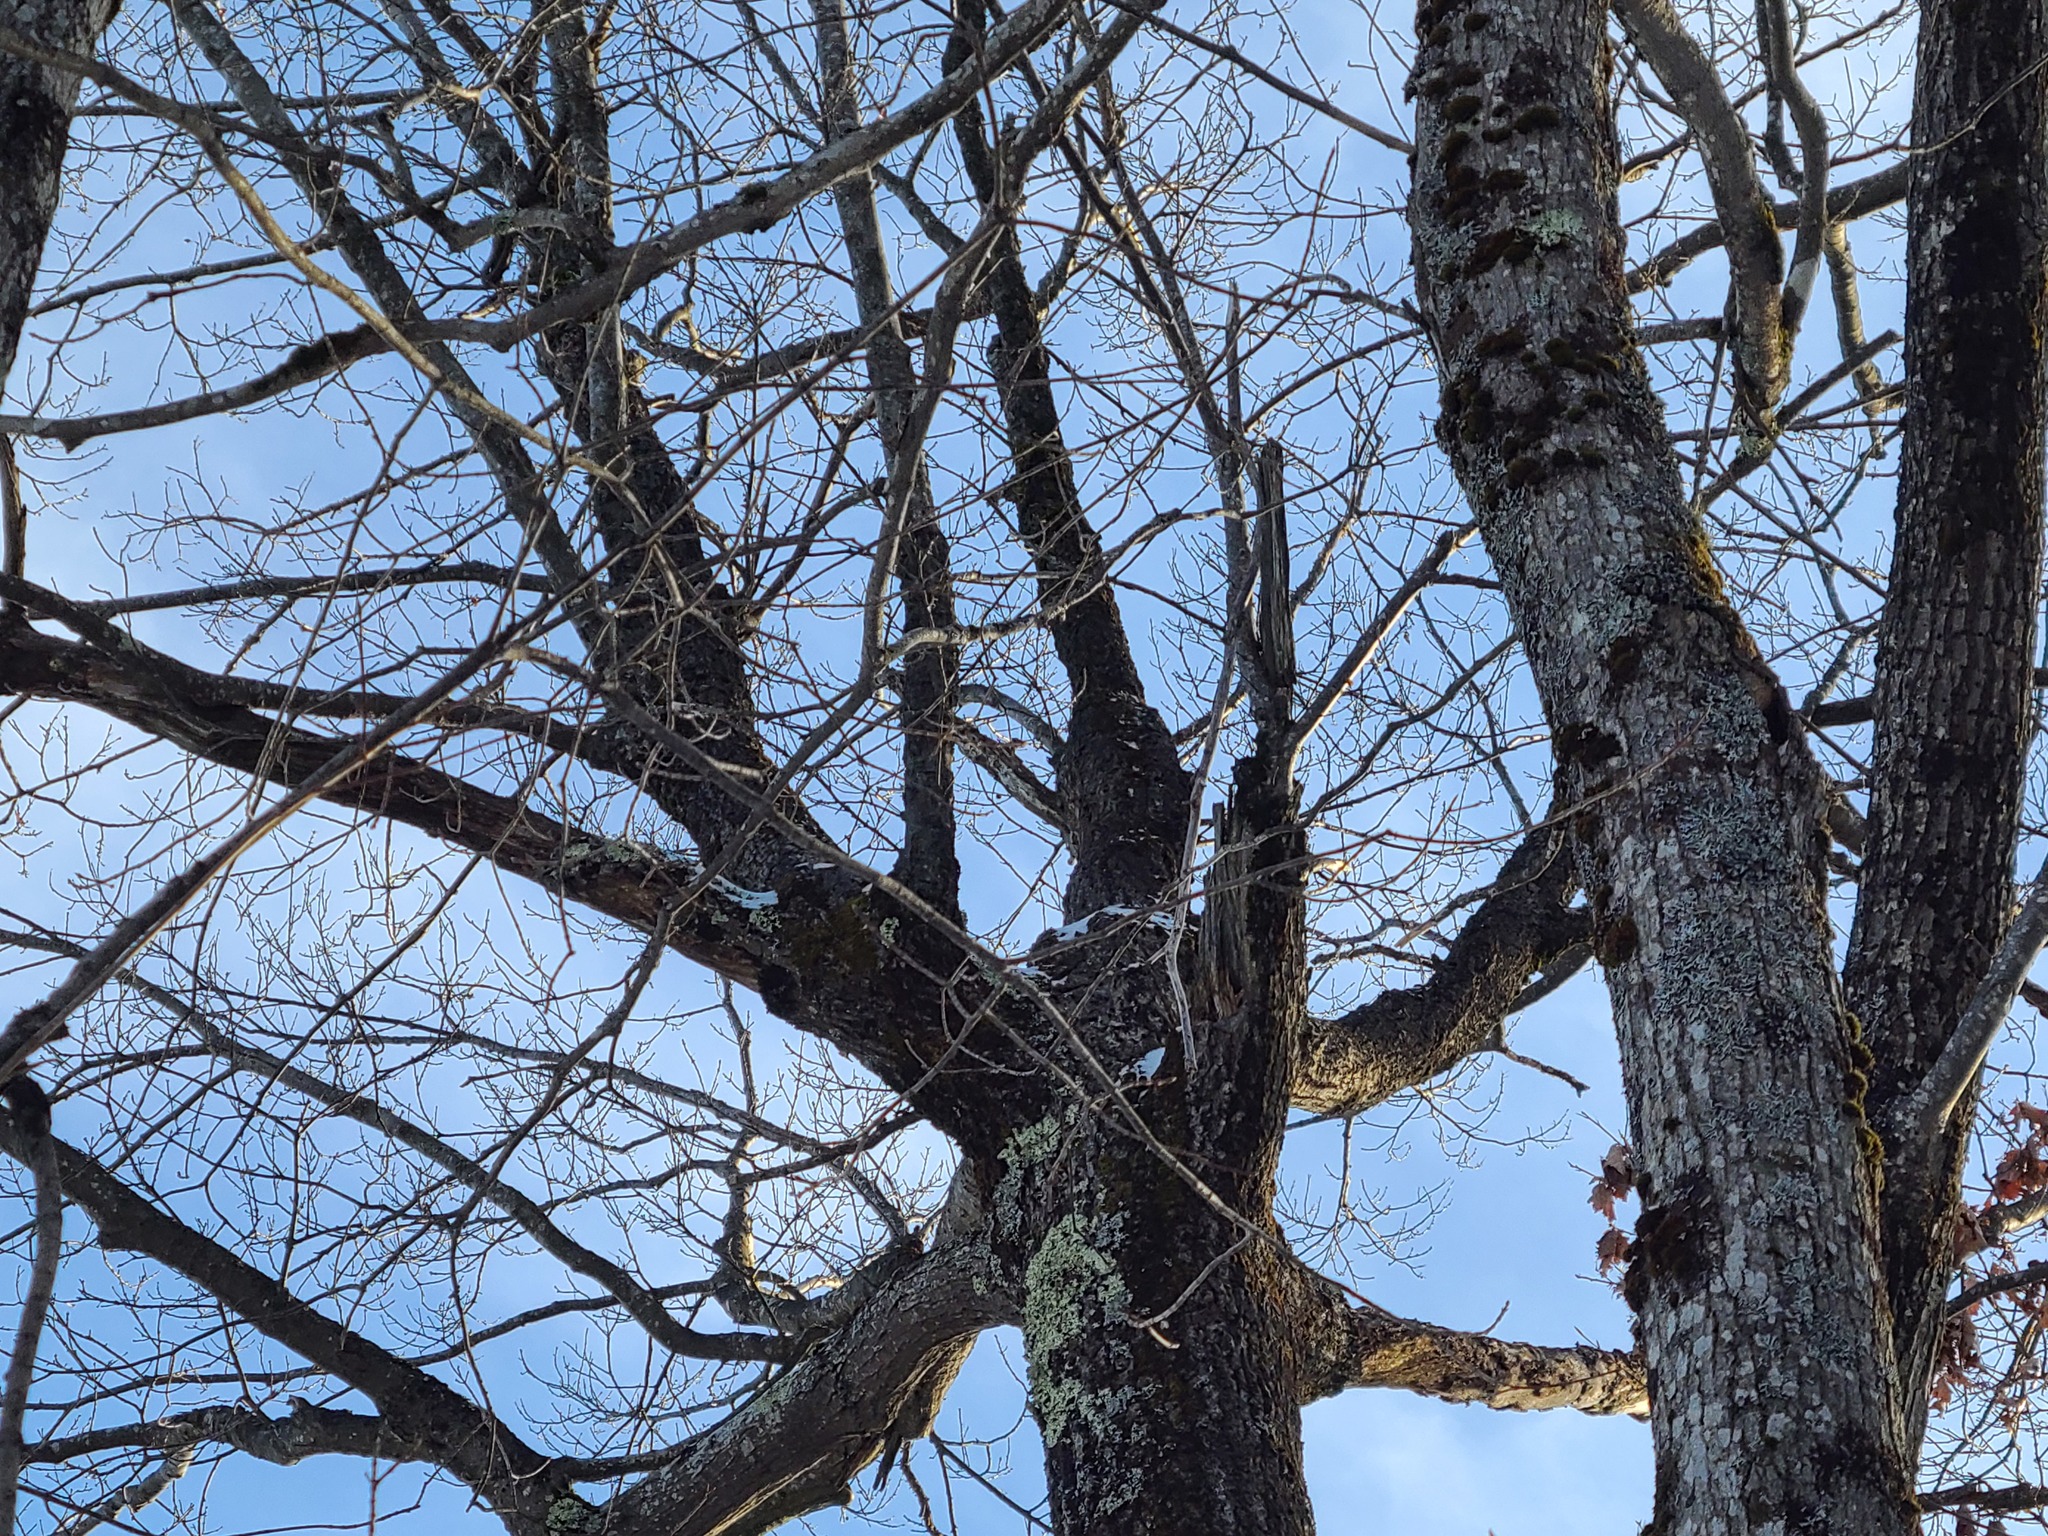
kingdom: Plantae
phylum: Tracheophyta
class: Magnoliopsida
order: Fagales
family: Fagaceae
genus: Quercus
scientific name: Quercus rubra
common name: Red oak
